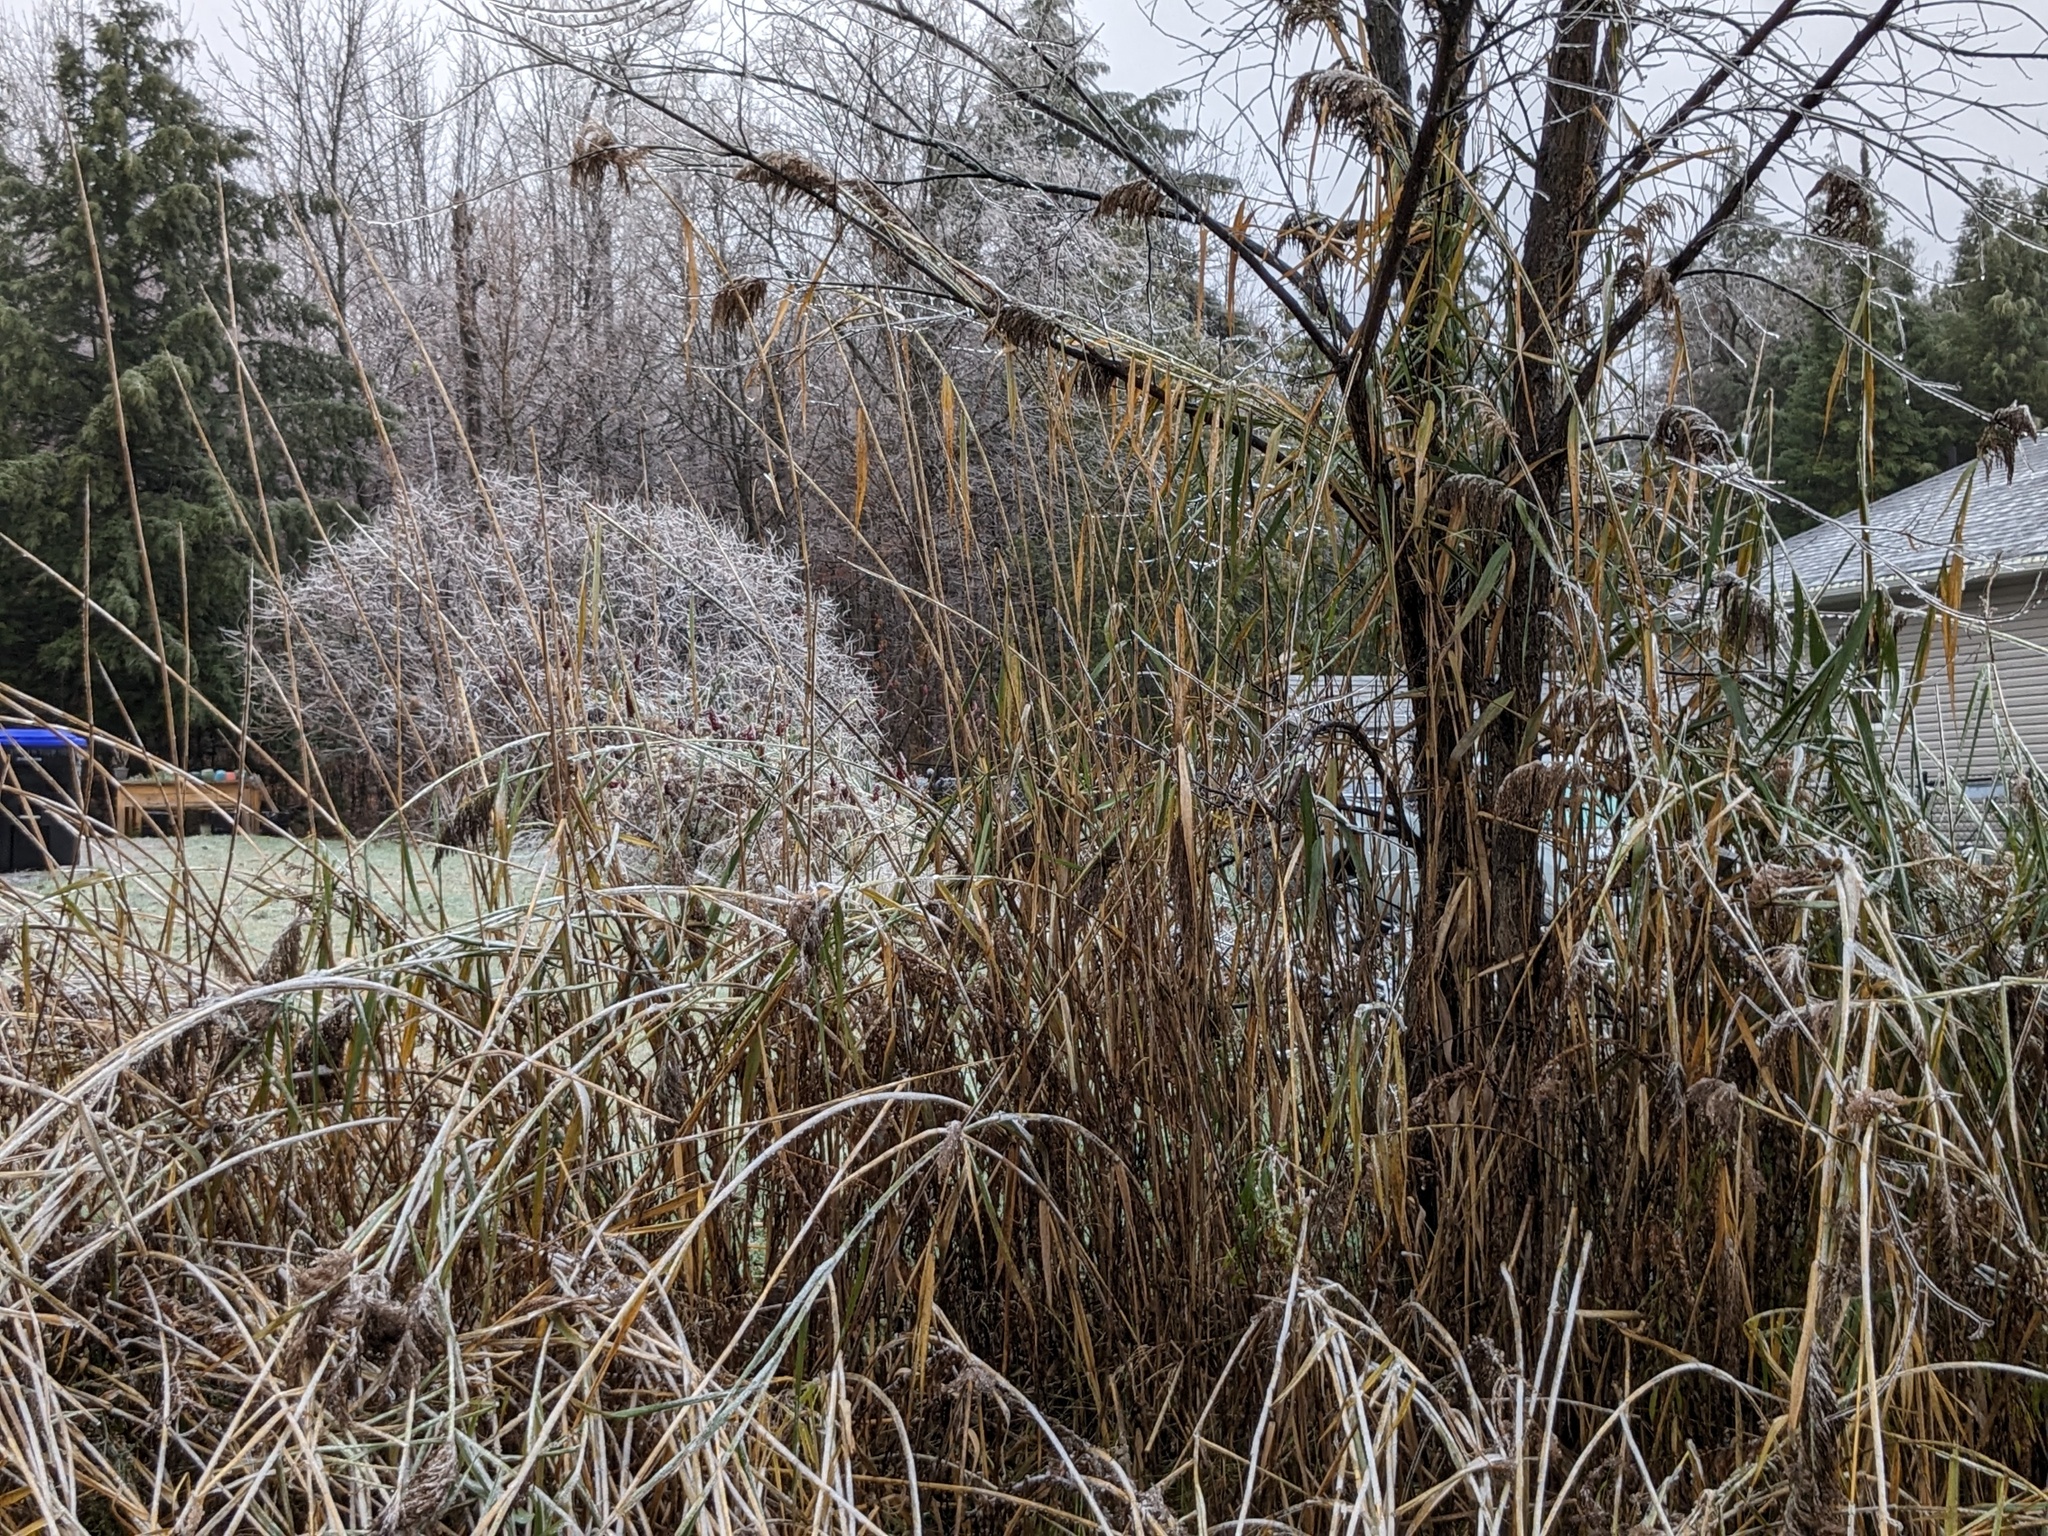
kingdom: Plantae
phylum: Tracheophyta
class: Liliopsida
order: Poales
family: Poaceae
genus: Phragmites
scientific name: Phragmites australis
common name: Common reed
